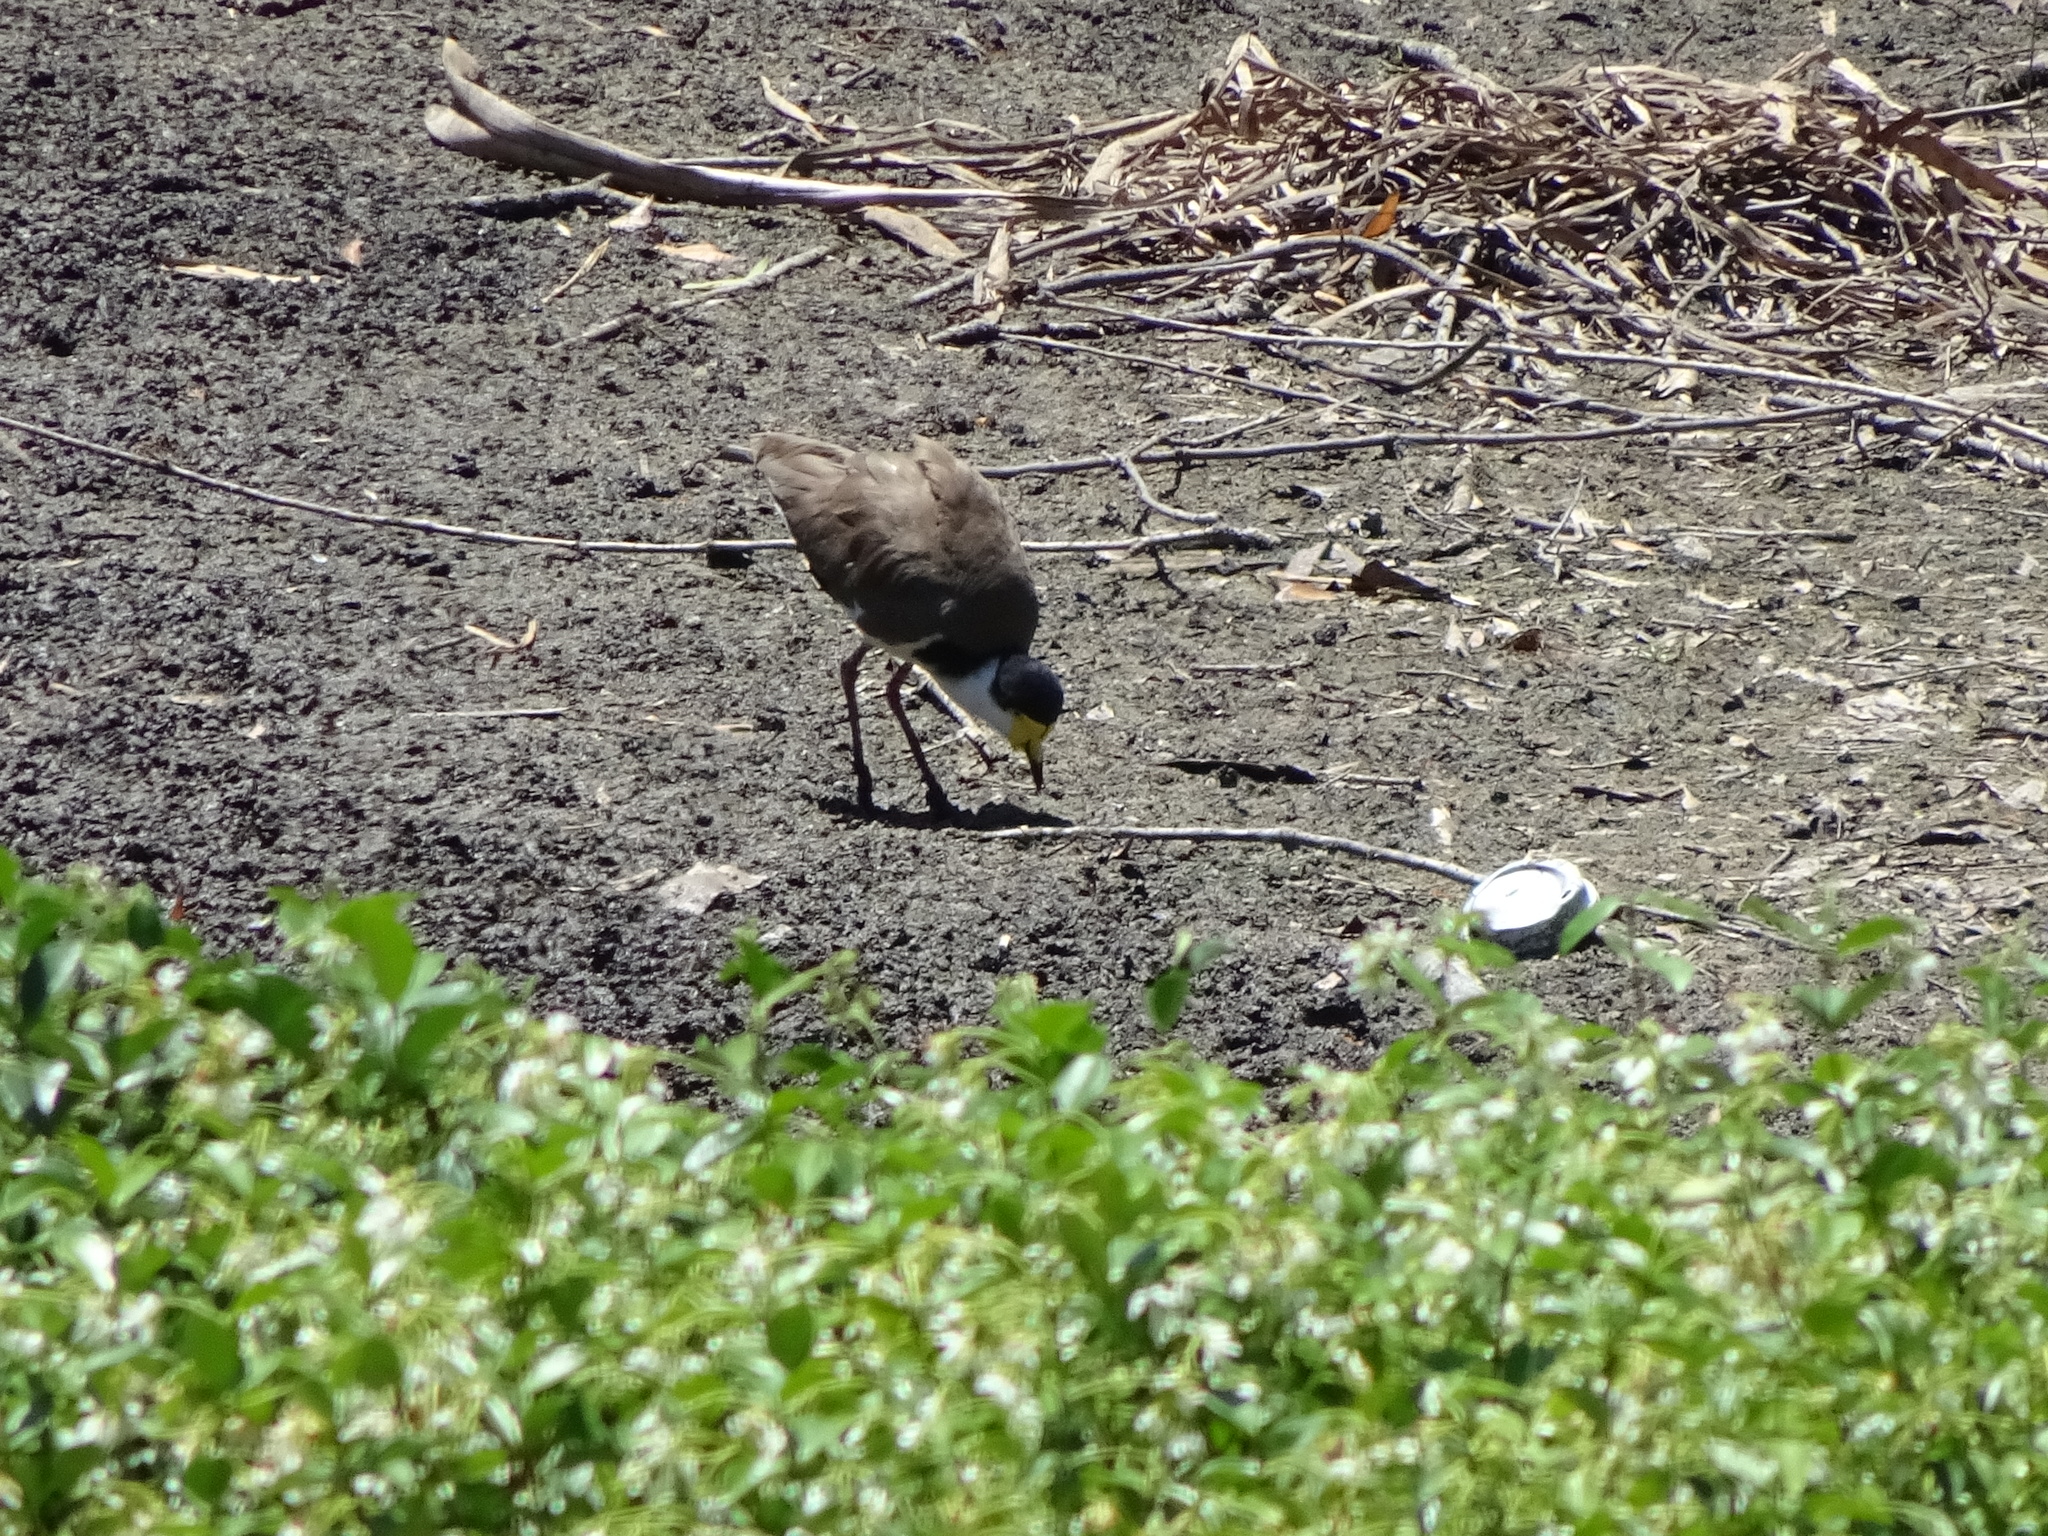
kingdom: Animalia
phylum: Chordata
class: Aves
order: Charadriiformes
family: Charadriidae
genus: Vanellus
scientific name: Vanellus miles
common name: Masked lapwing
